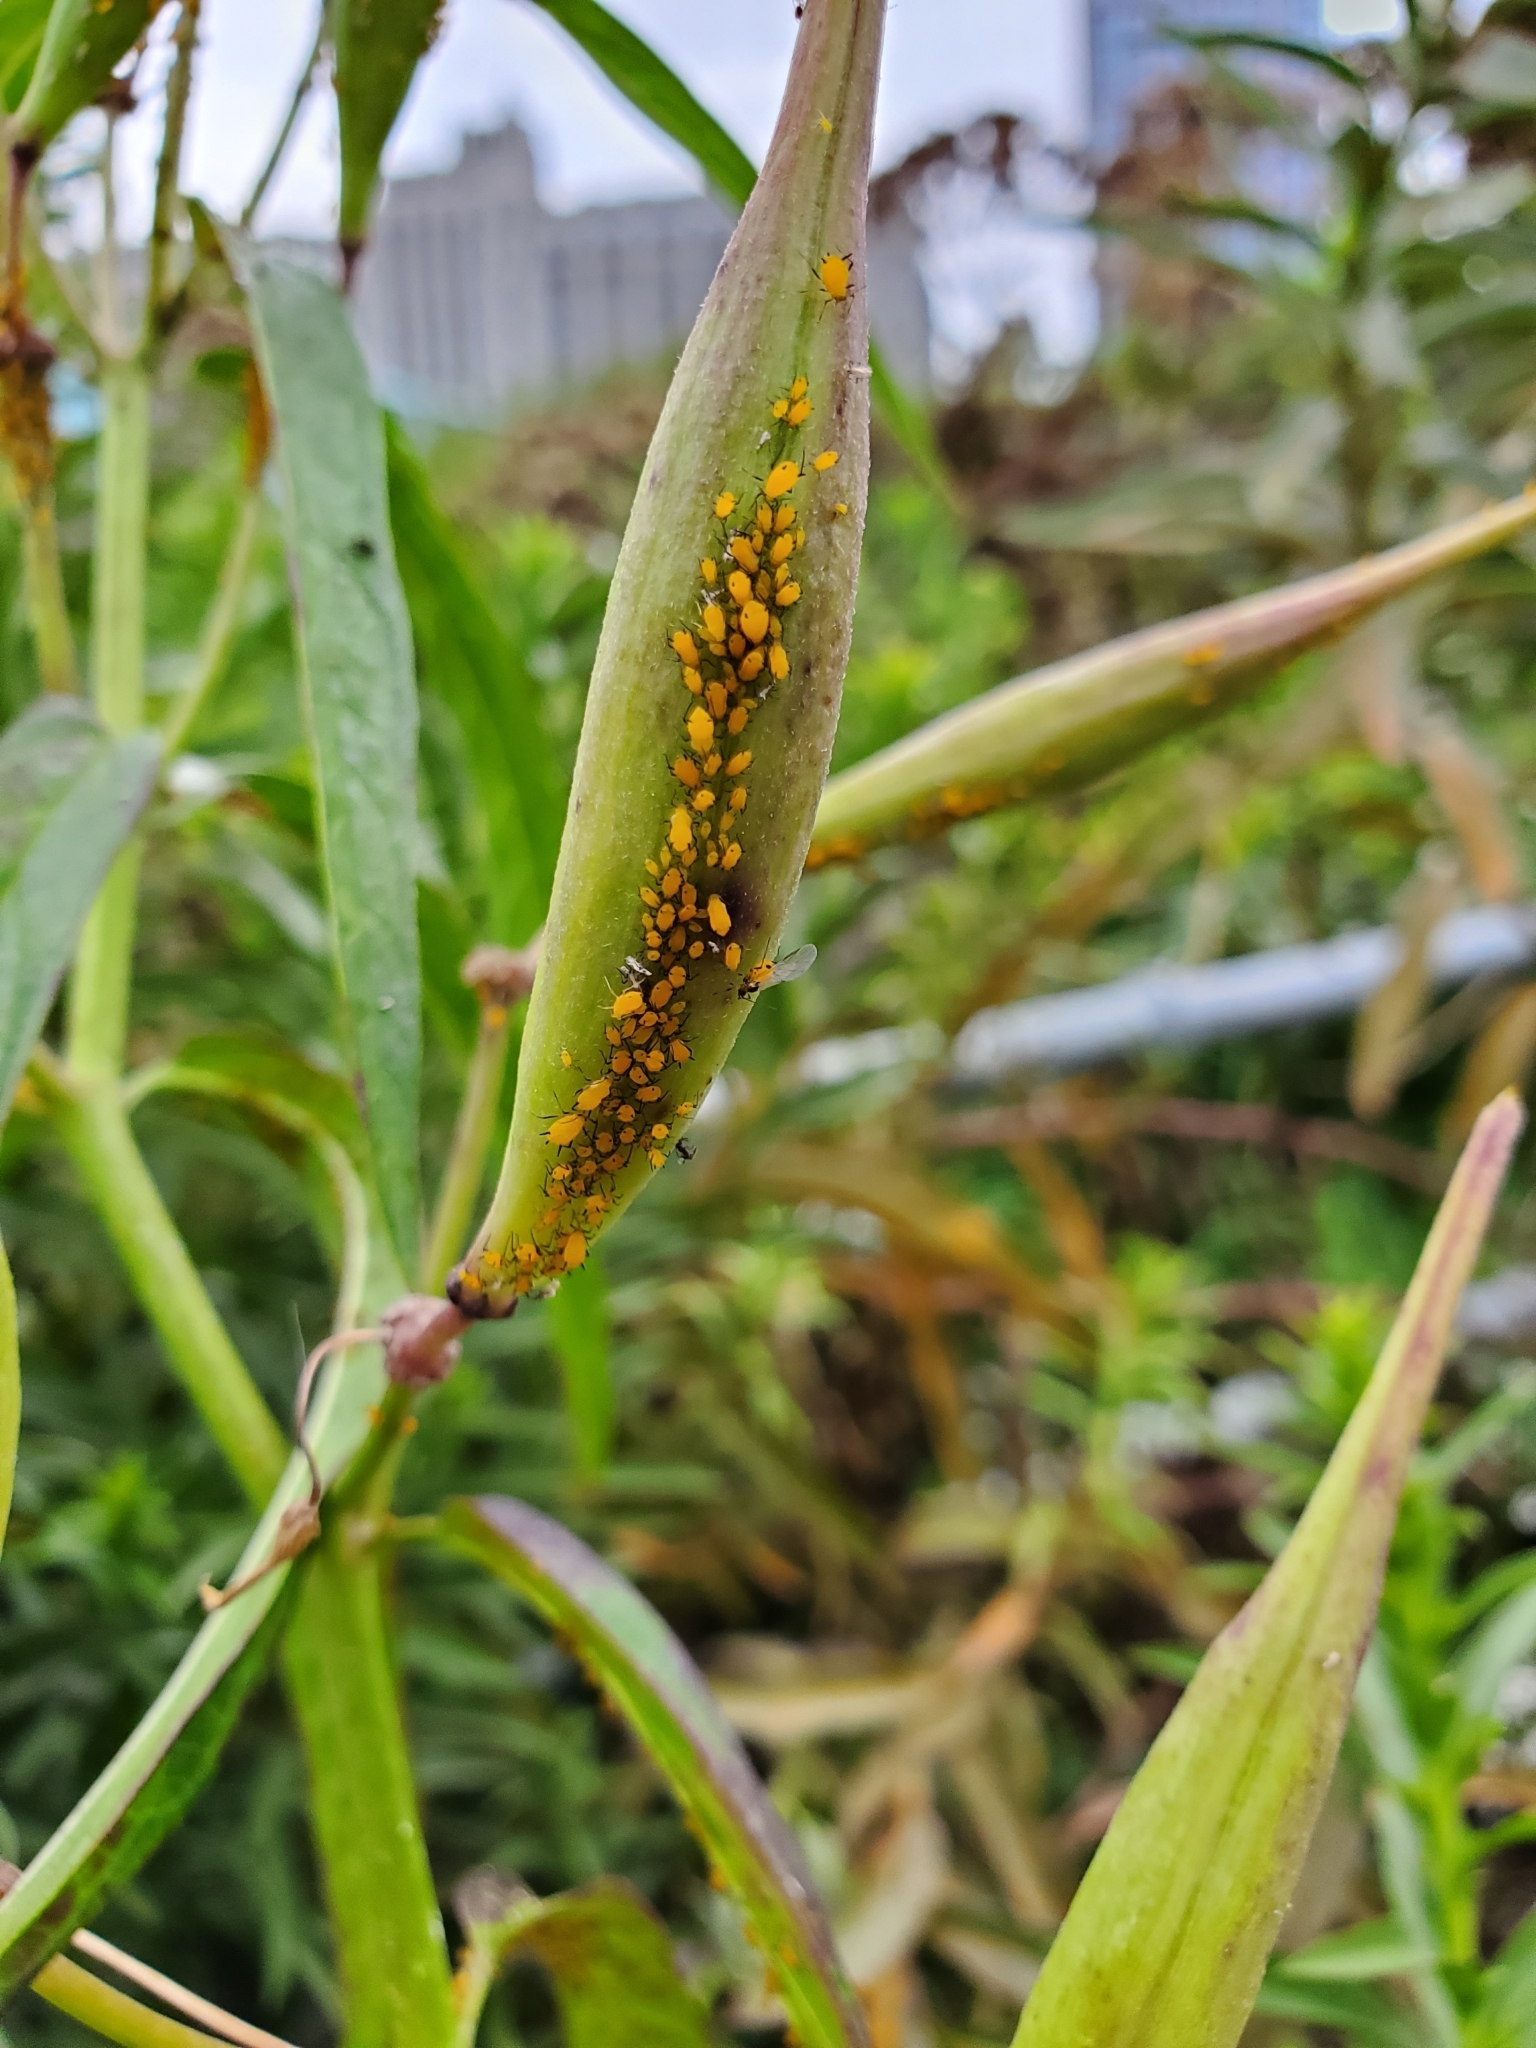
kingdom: Animalia
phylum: Arthropoda
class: Insecta
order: Hemiptera
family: Aphididae
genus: Aphis
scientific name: Aphis nerii
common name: Oleander aphid
